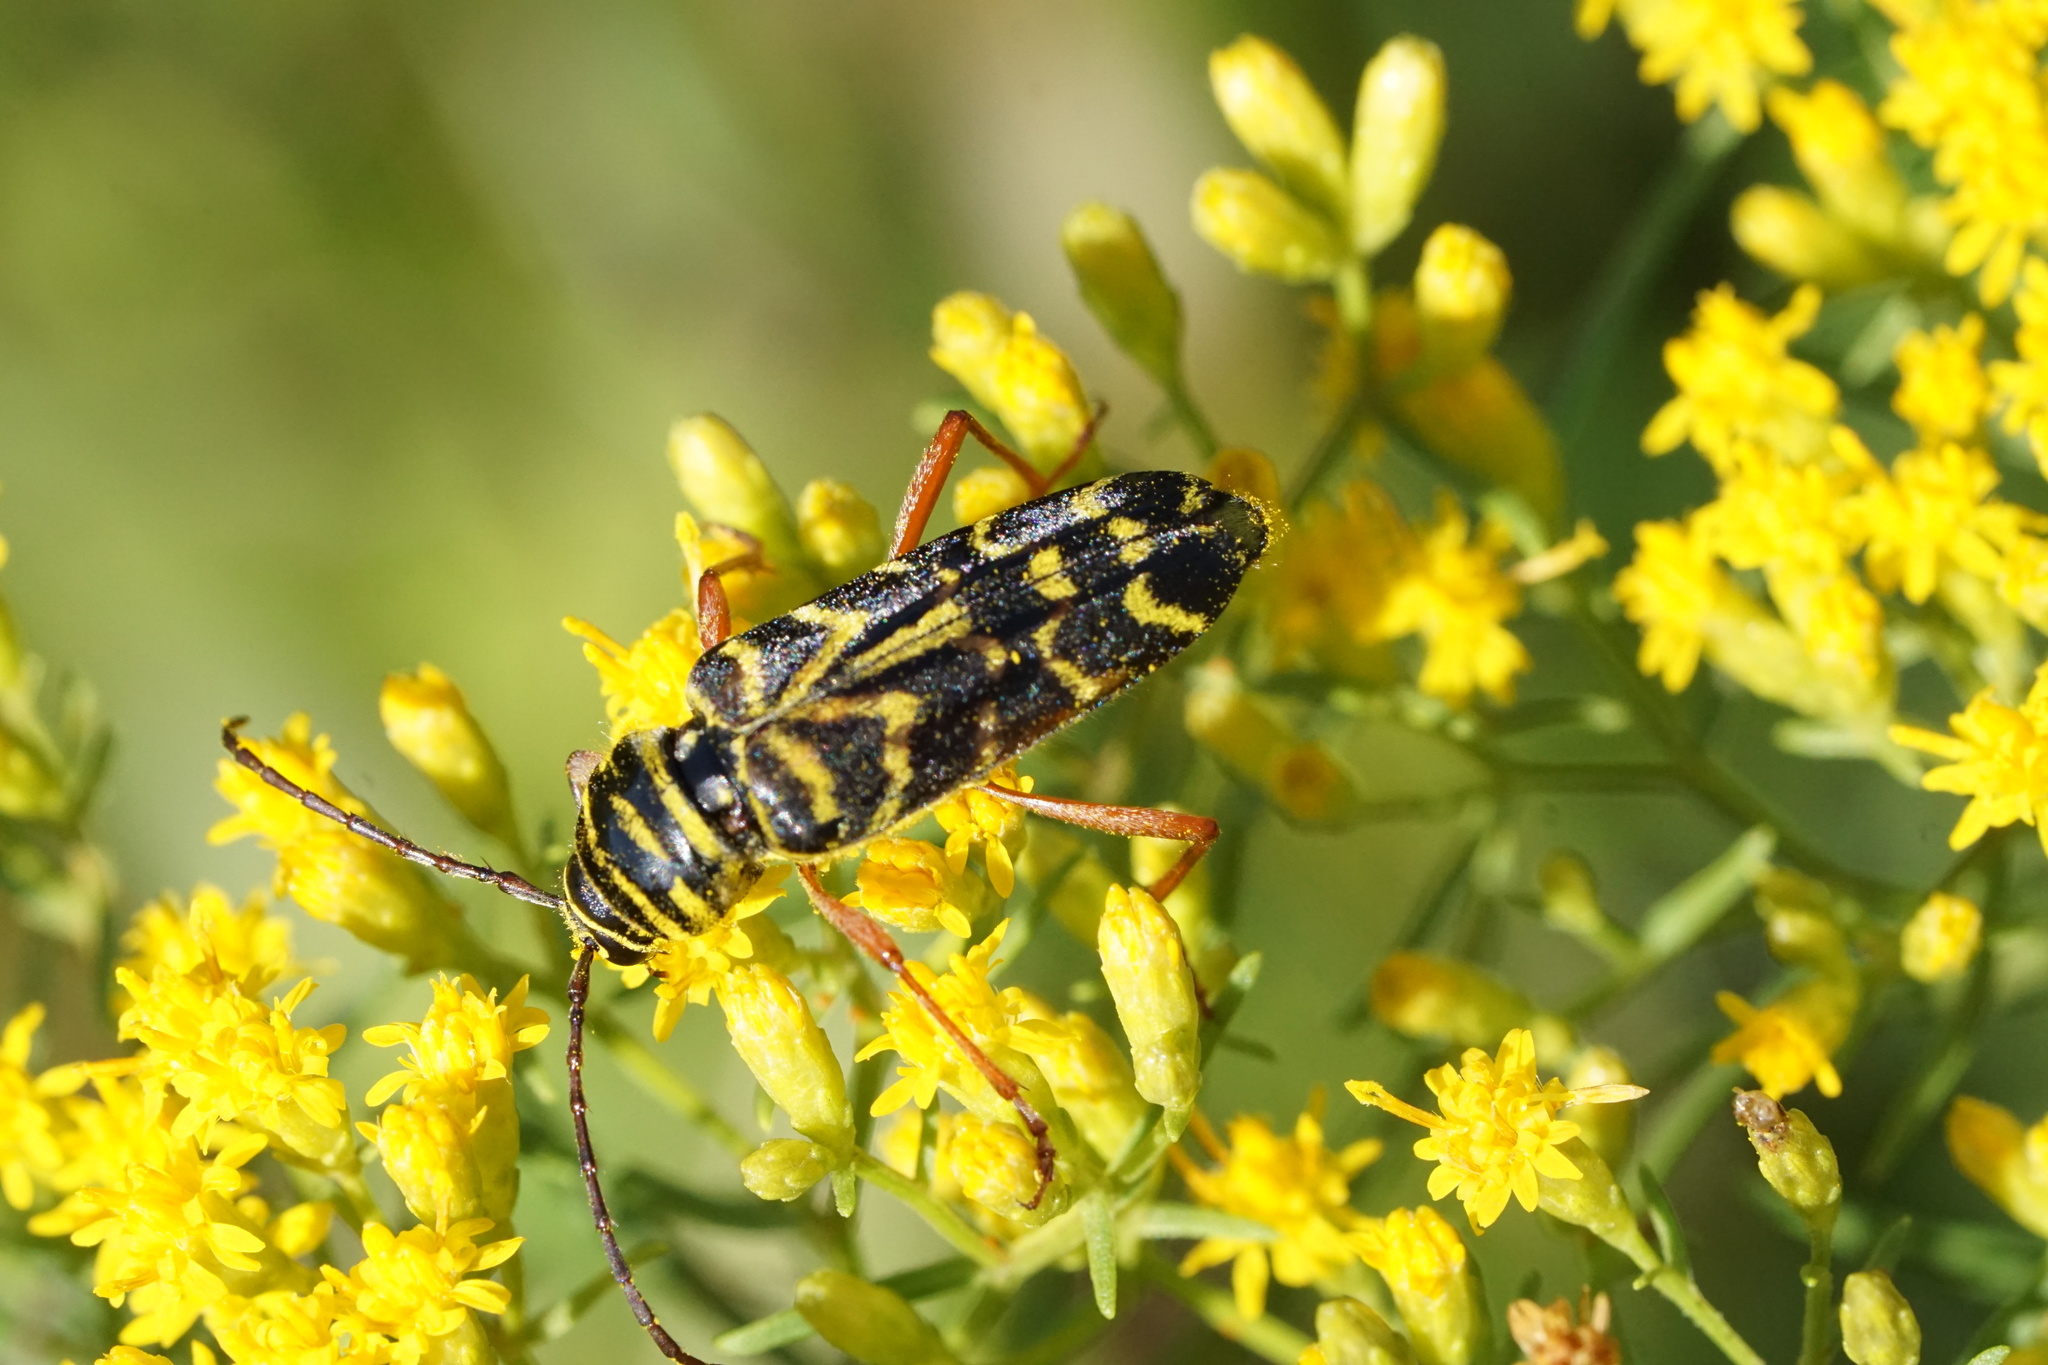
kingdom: Animalia
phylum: Arthropoda
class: Insecta
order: Coleoptera
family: Cerambycidae
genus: Megacyllene
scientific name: Megacyllene robiniae
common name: Locust borer
